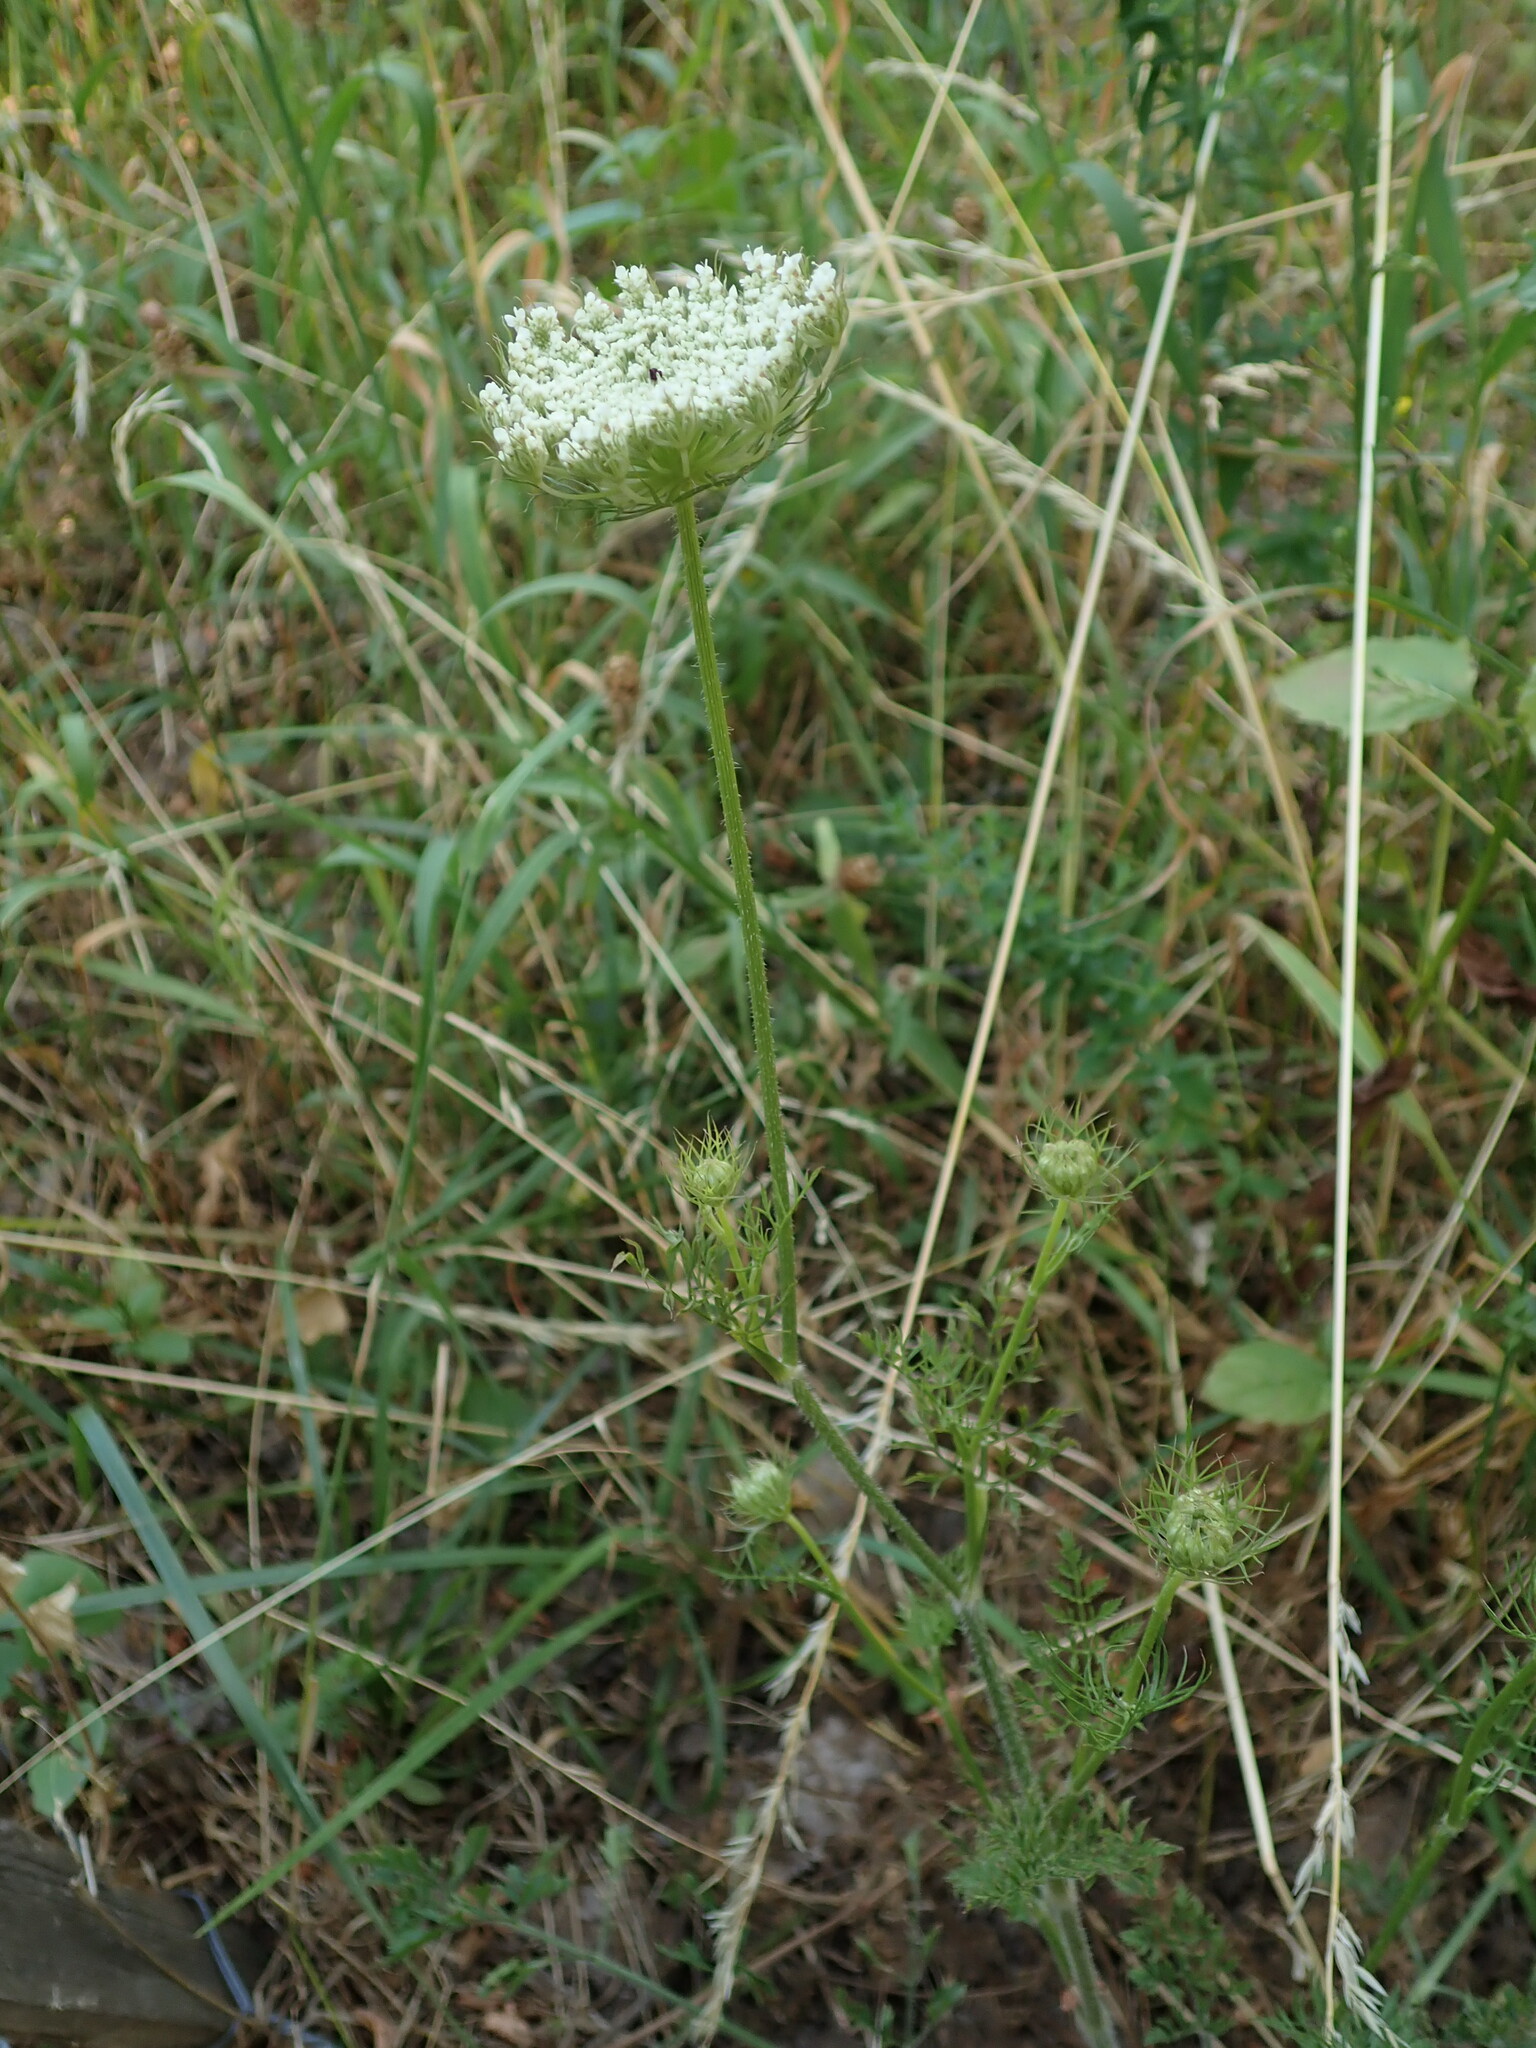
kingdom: Plantae
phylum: Tracheophyta
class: Magnoliopsida
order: Apiales
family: Apiaceae
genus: Daucus
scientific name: Daucus carota
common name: Wild carrot
